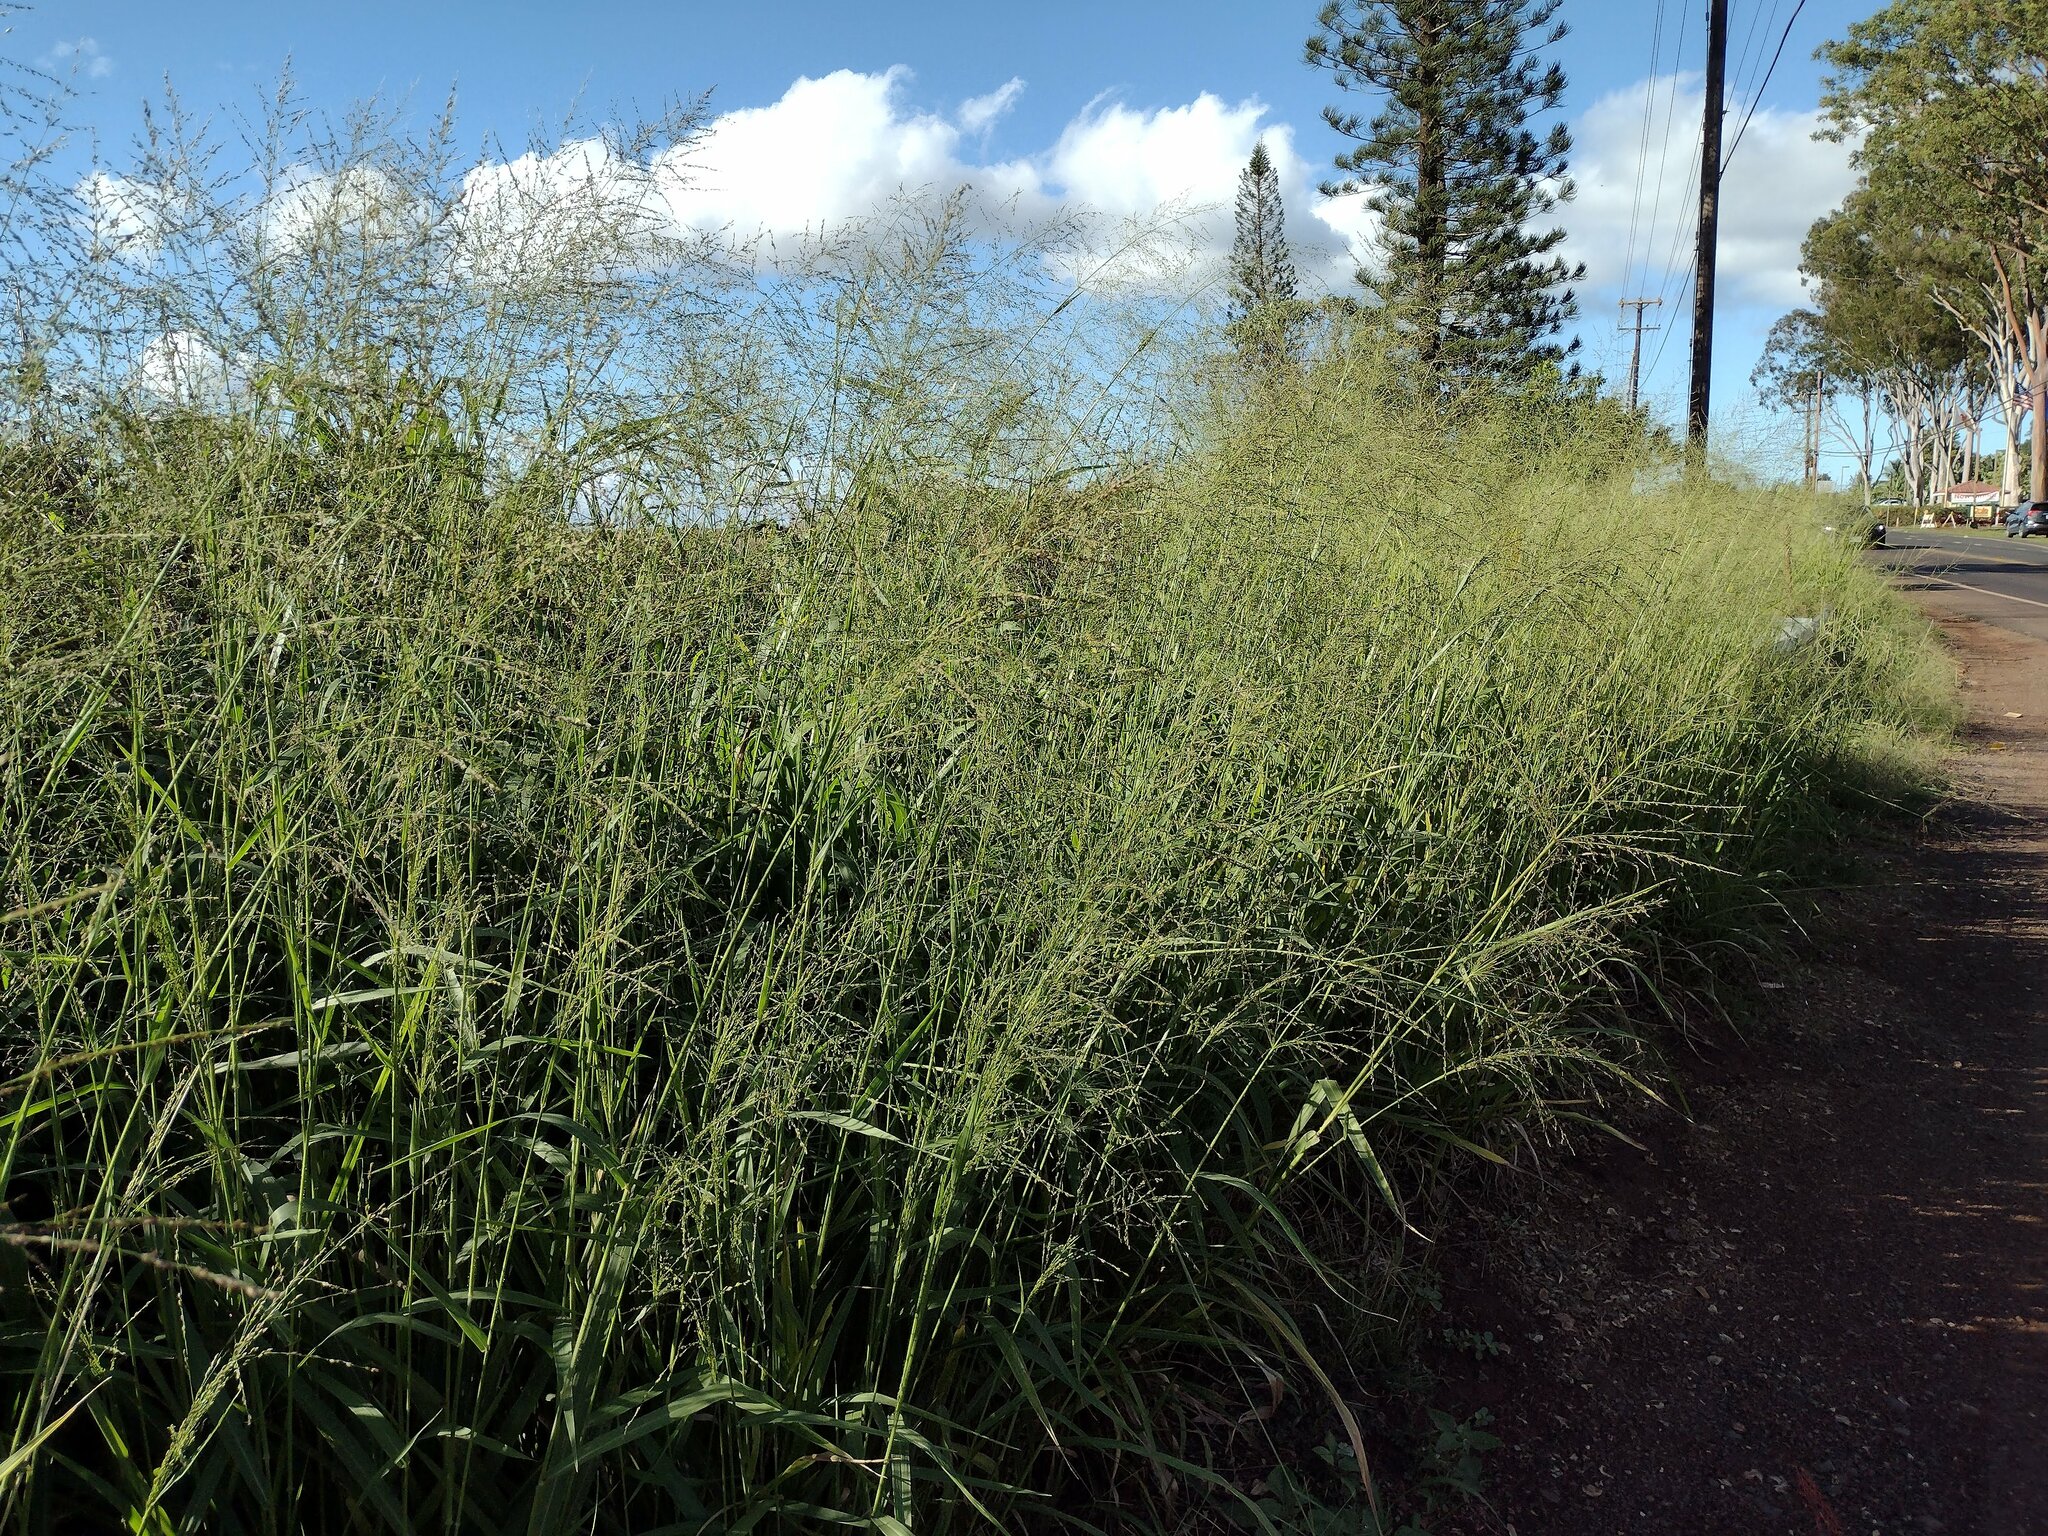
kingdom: Plantae
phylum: Tracheophyta
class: Liliopsida
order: Poales
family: Poaceae
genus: Megathyrsus
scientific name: Megathyrsus maximus
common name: Guineagrass
